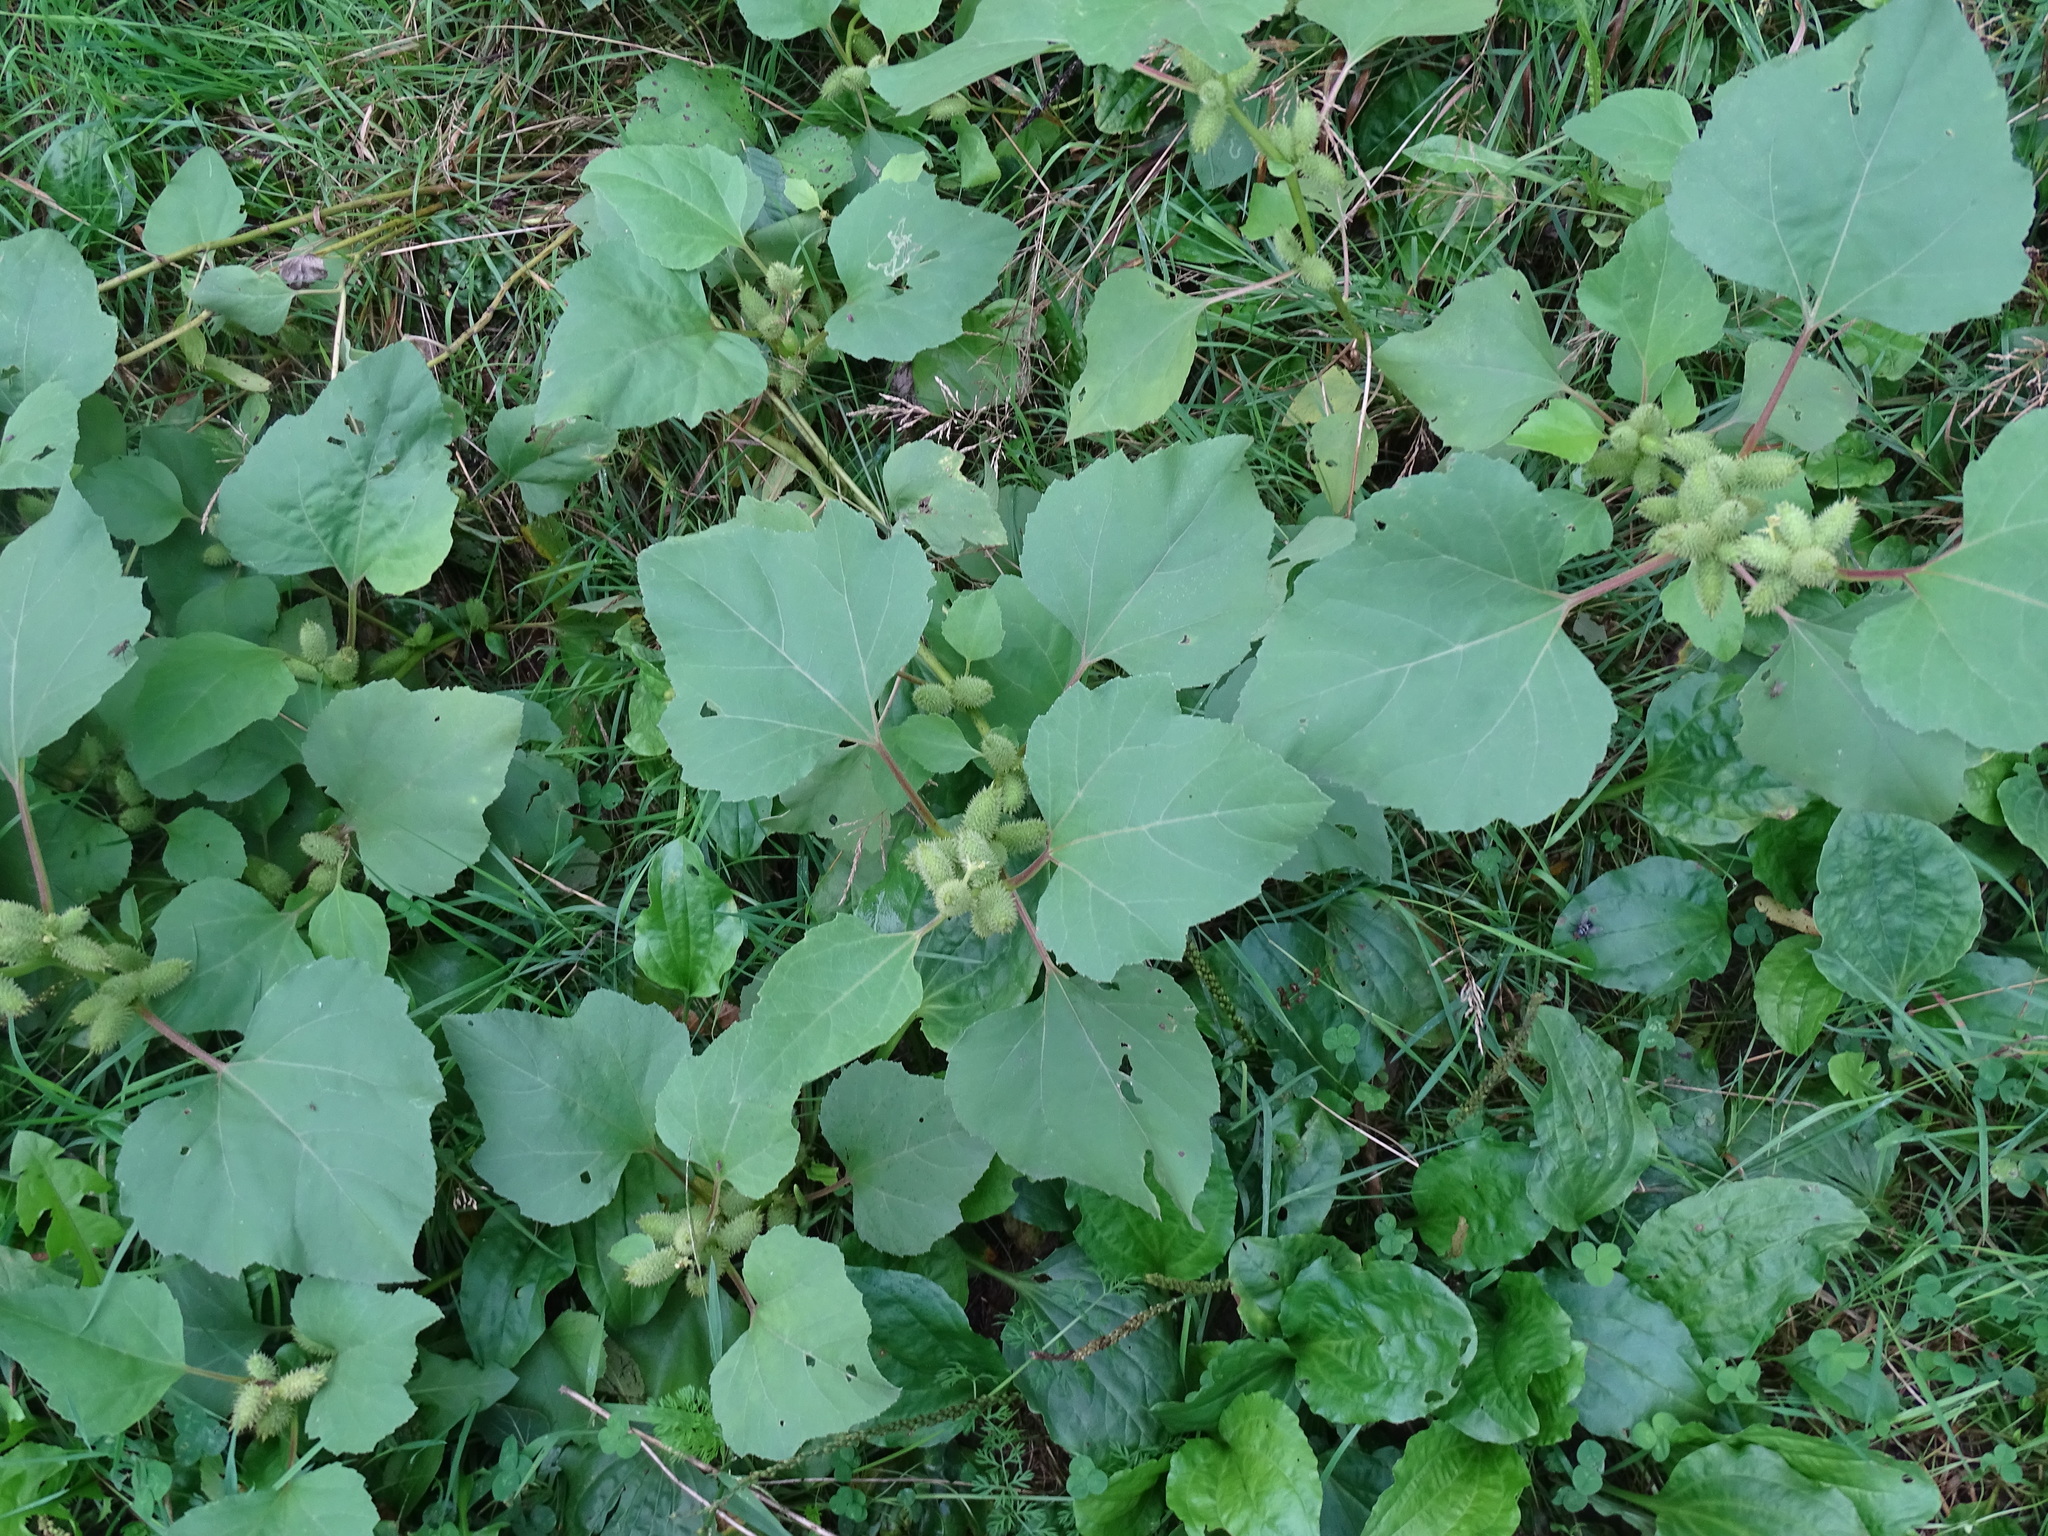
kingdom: Plantae
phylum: Tracheophyta
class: Magnoliopsida
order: Asterales
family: Asteraceae
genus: Xanthium
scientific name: Xanthium strumarium
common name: Rough cocklebur
